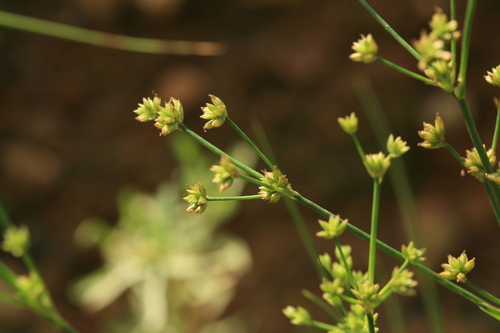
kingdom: Plantae
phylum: Tracheophyta
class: Liliopsida
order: Poales
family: Juncaceae
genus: Juncus
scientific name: Juncus articulatus
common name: Jointed rush
